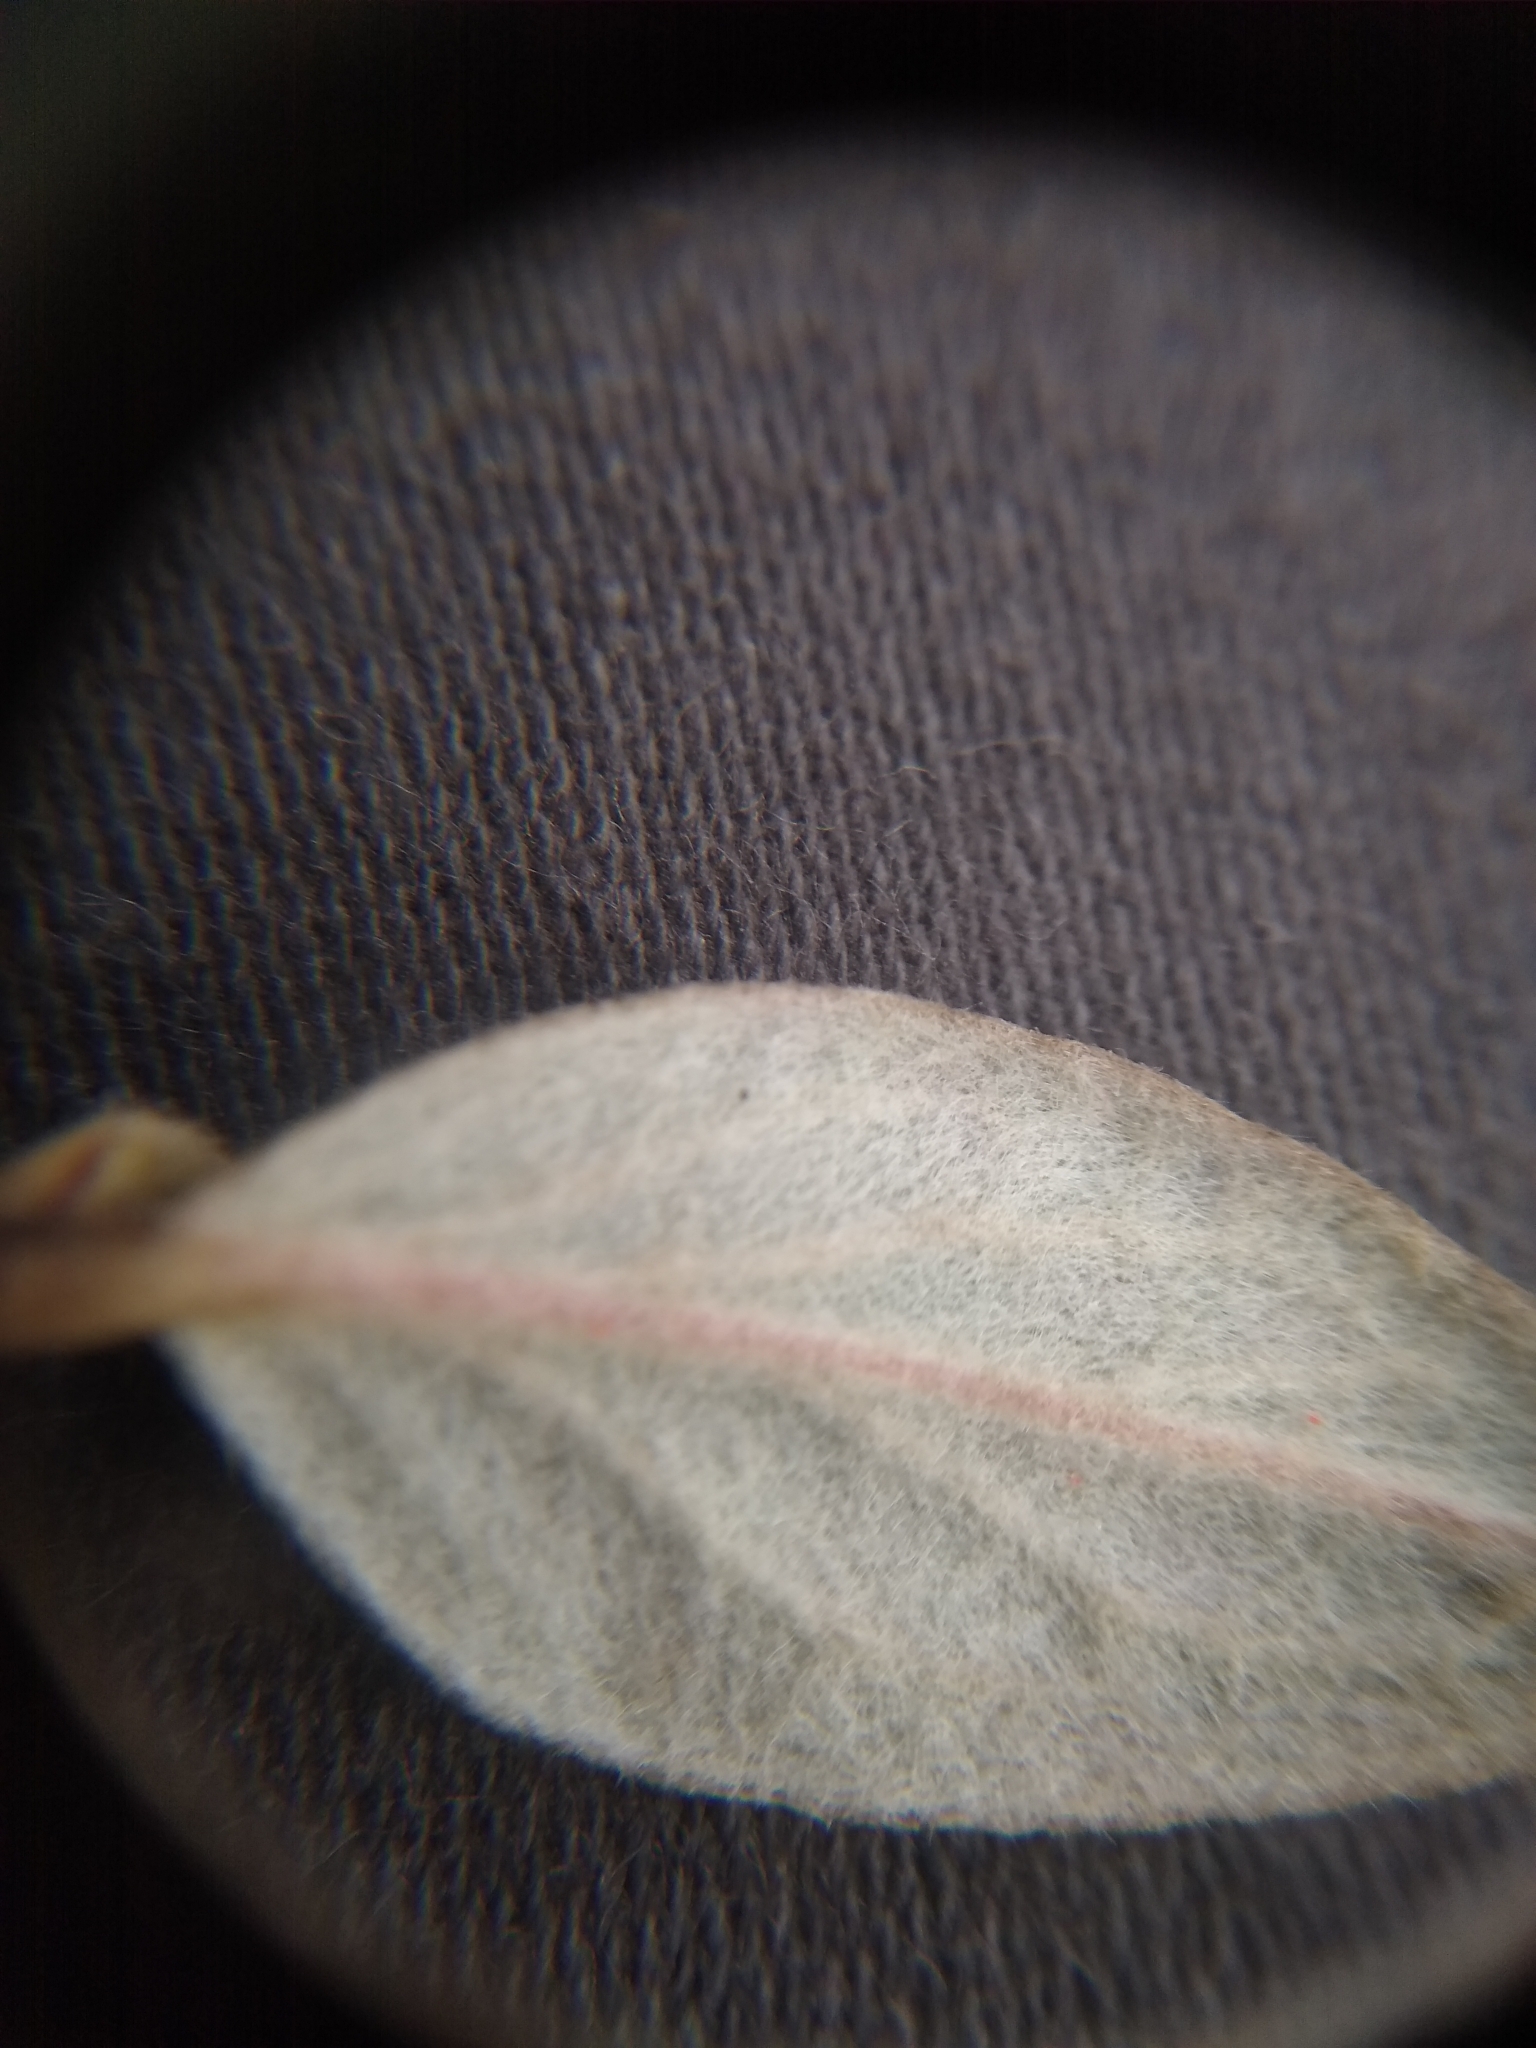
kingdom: Plantae
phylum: Tracheophyta
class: Magnoliopsida
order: Rosales
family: Rosaceae
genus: Cotoneaster
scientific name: Cotoneaster franchetii
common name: Franchet's cotoneaster
